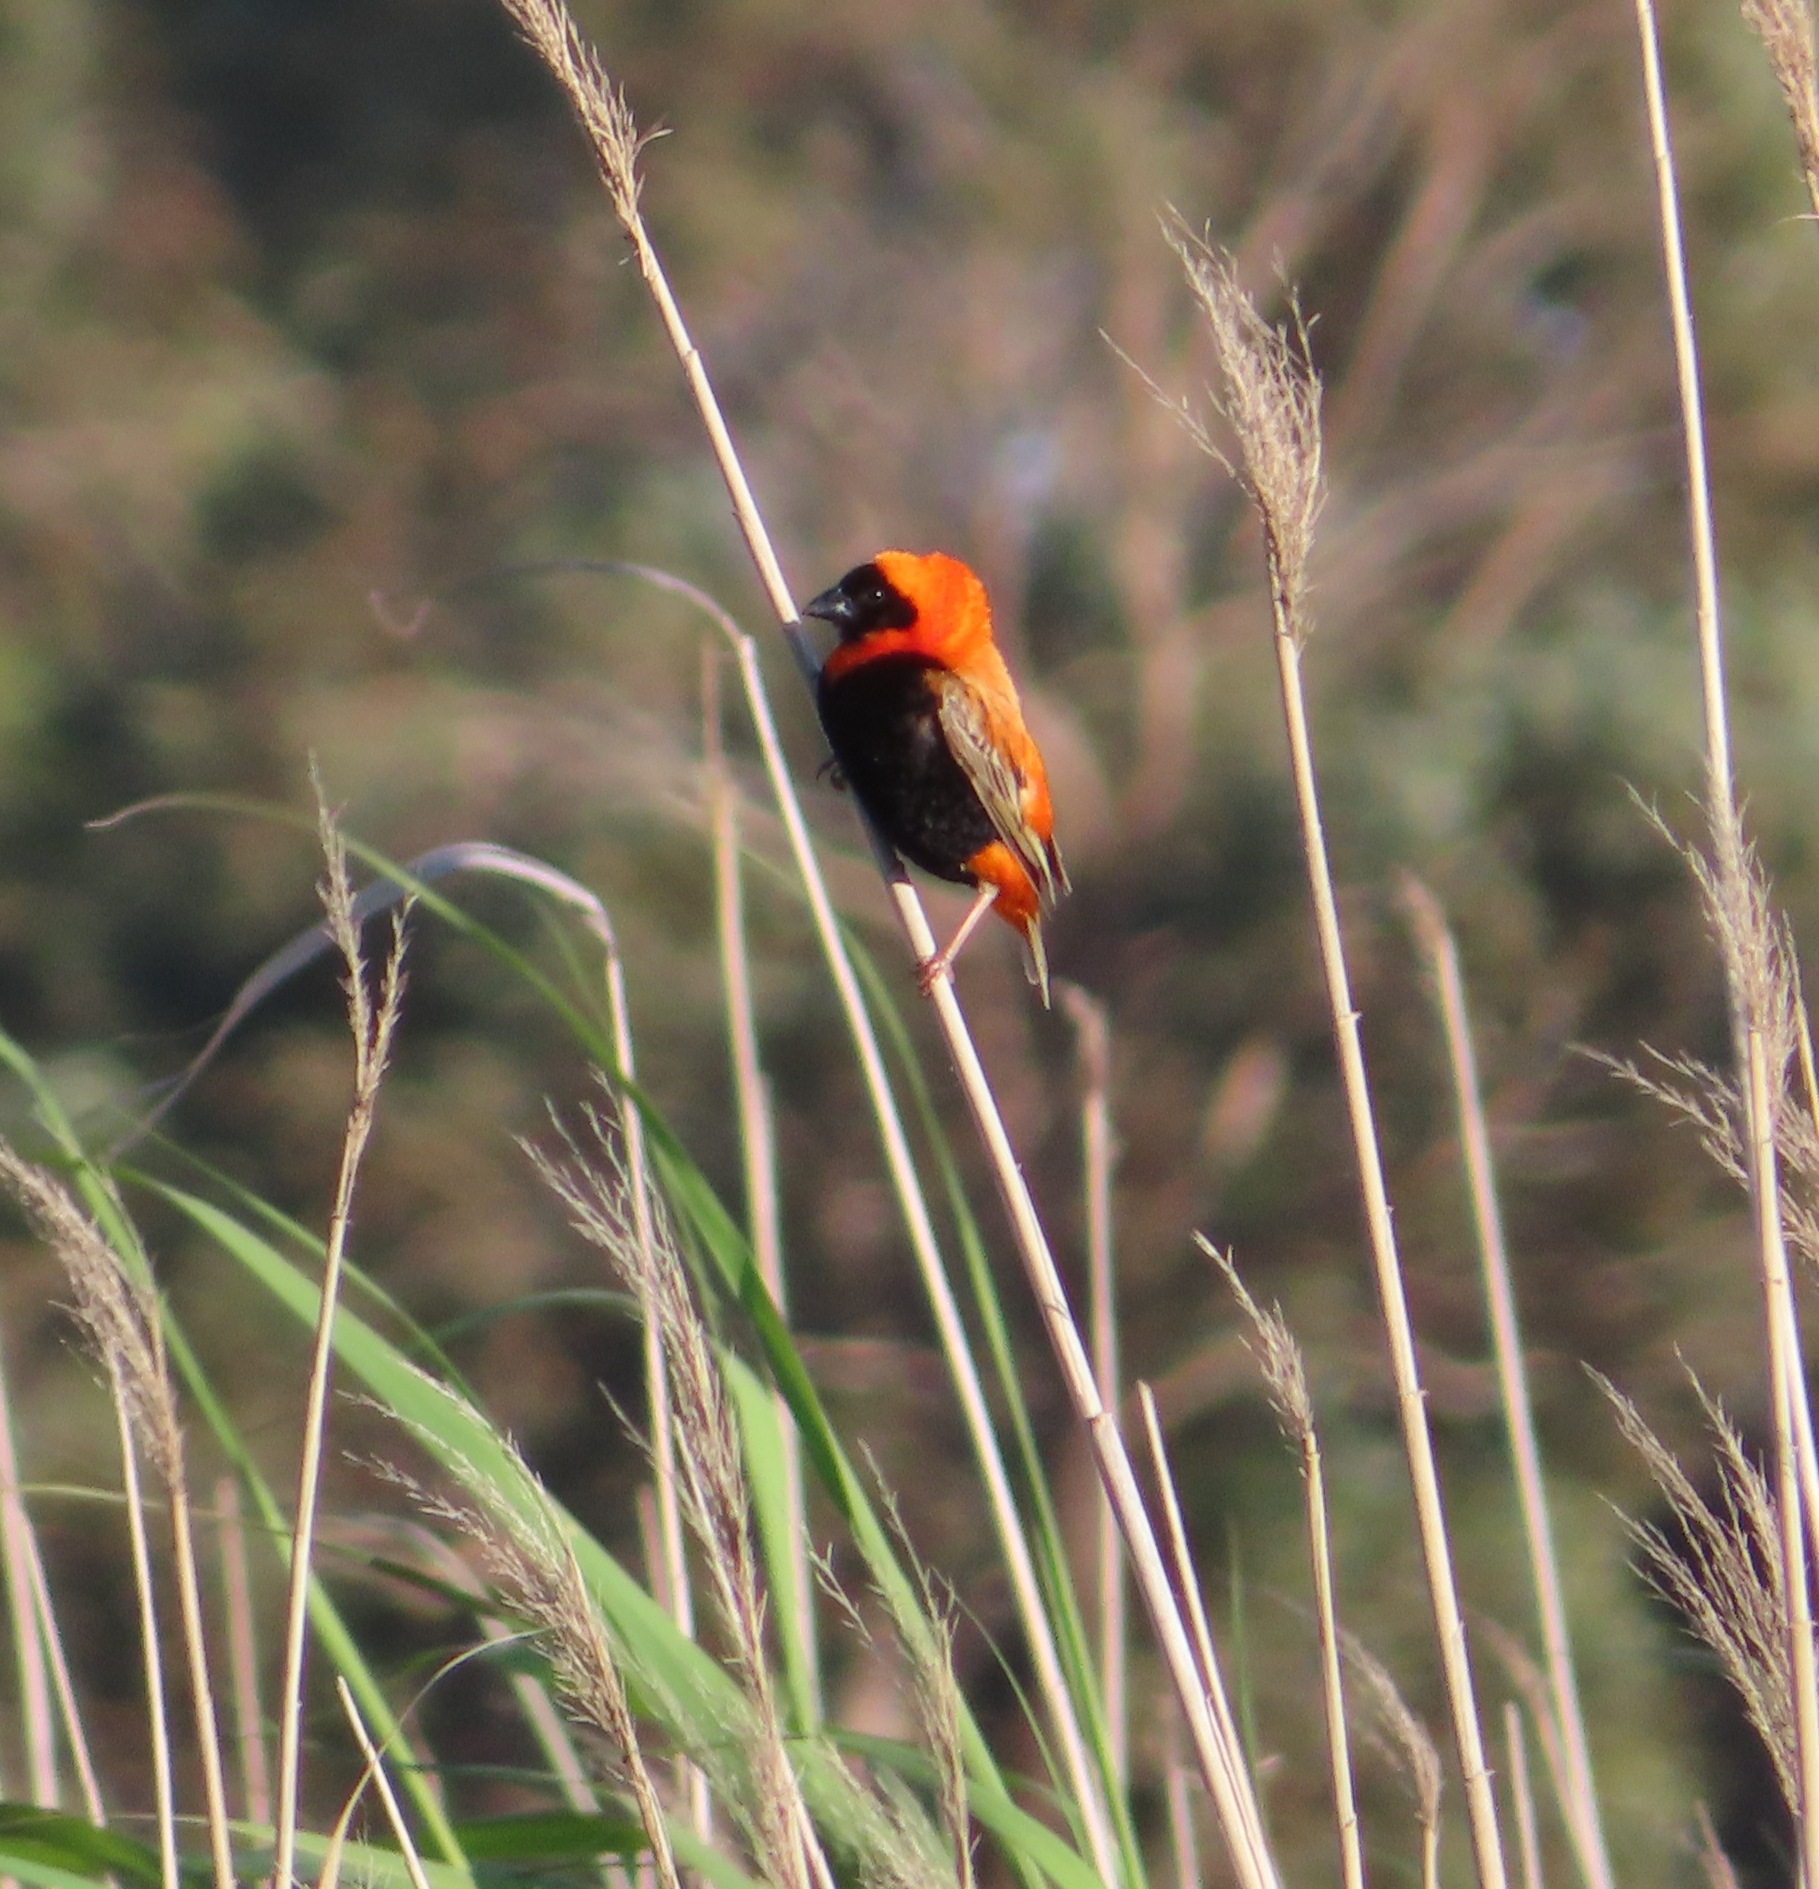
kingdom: Animalia
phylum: Chordata
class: Aves
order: Passeriformes
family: Ploceidae
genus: Euplectes
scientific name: Euplectes orix
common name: Southern red bishop
